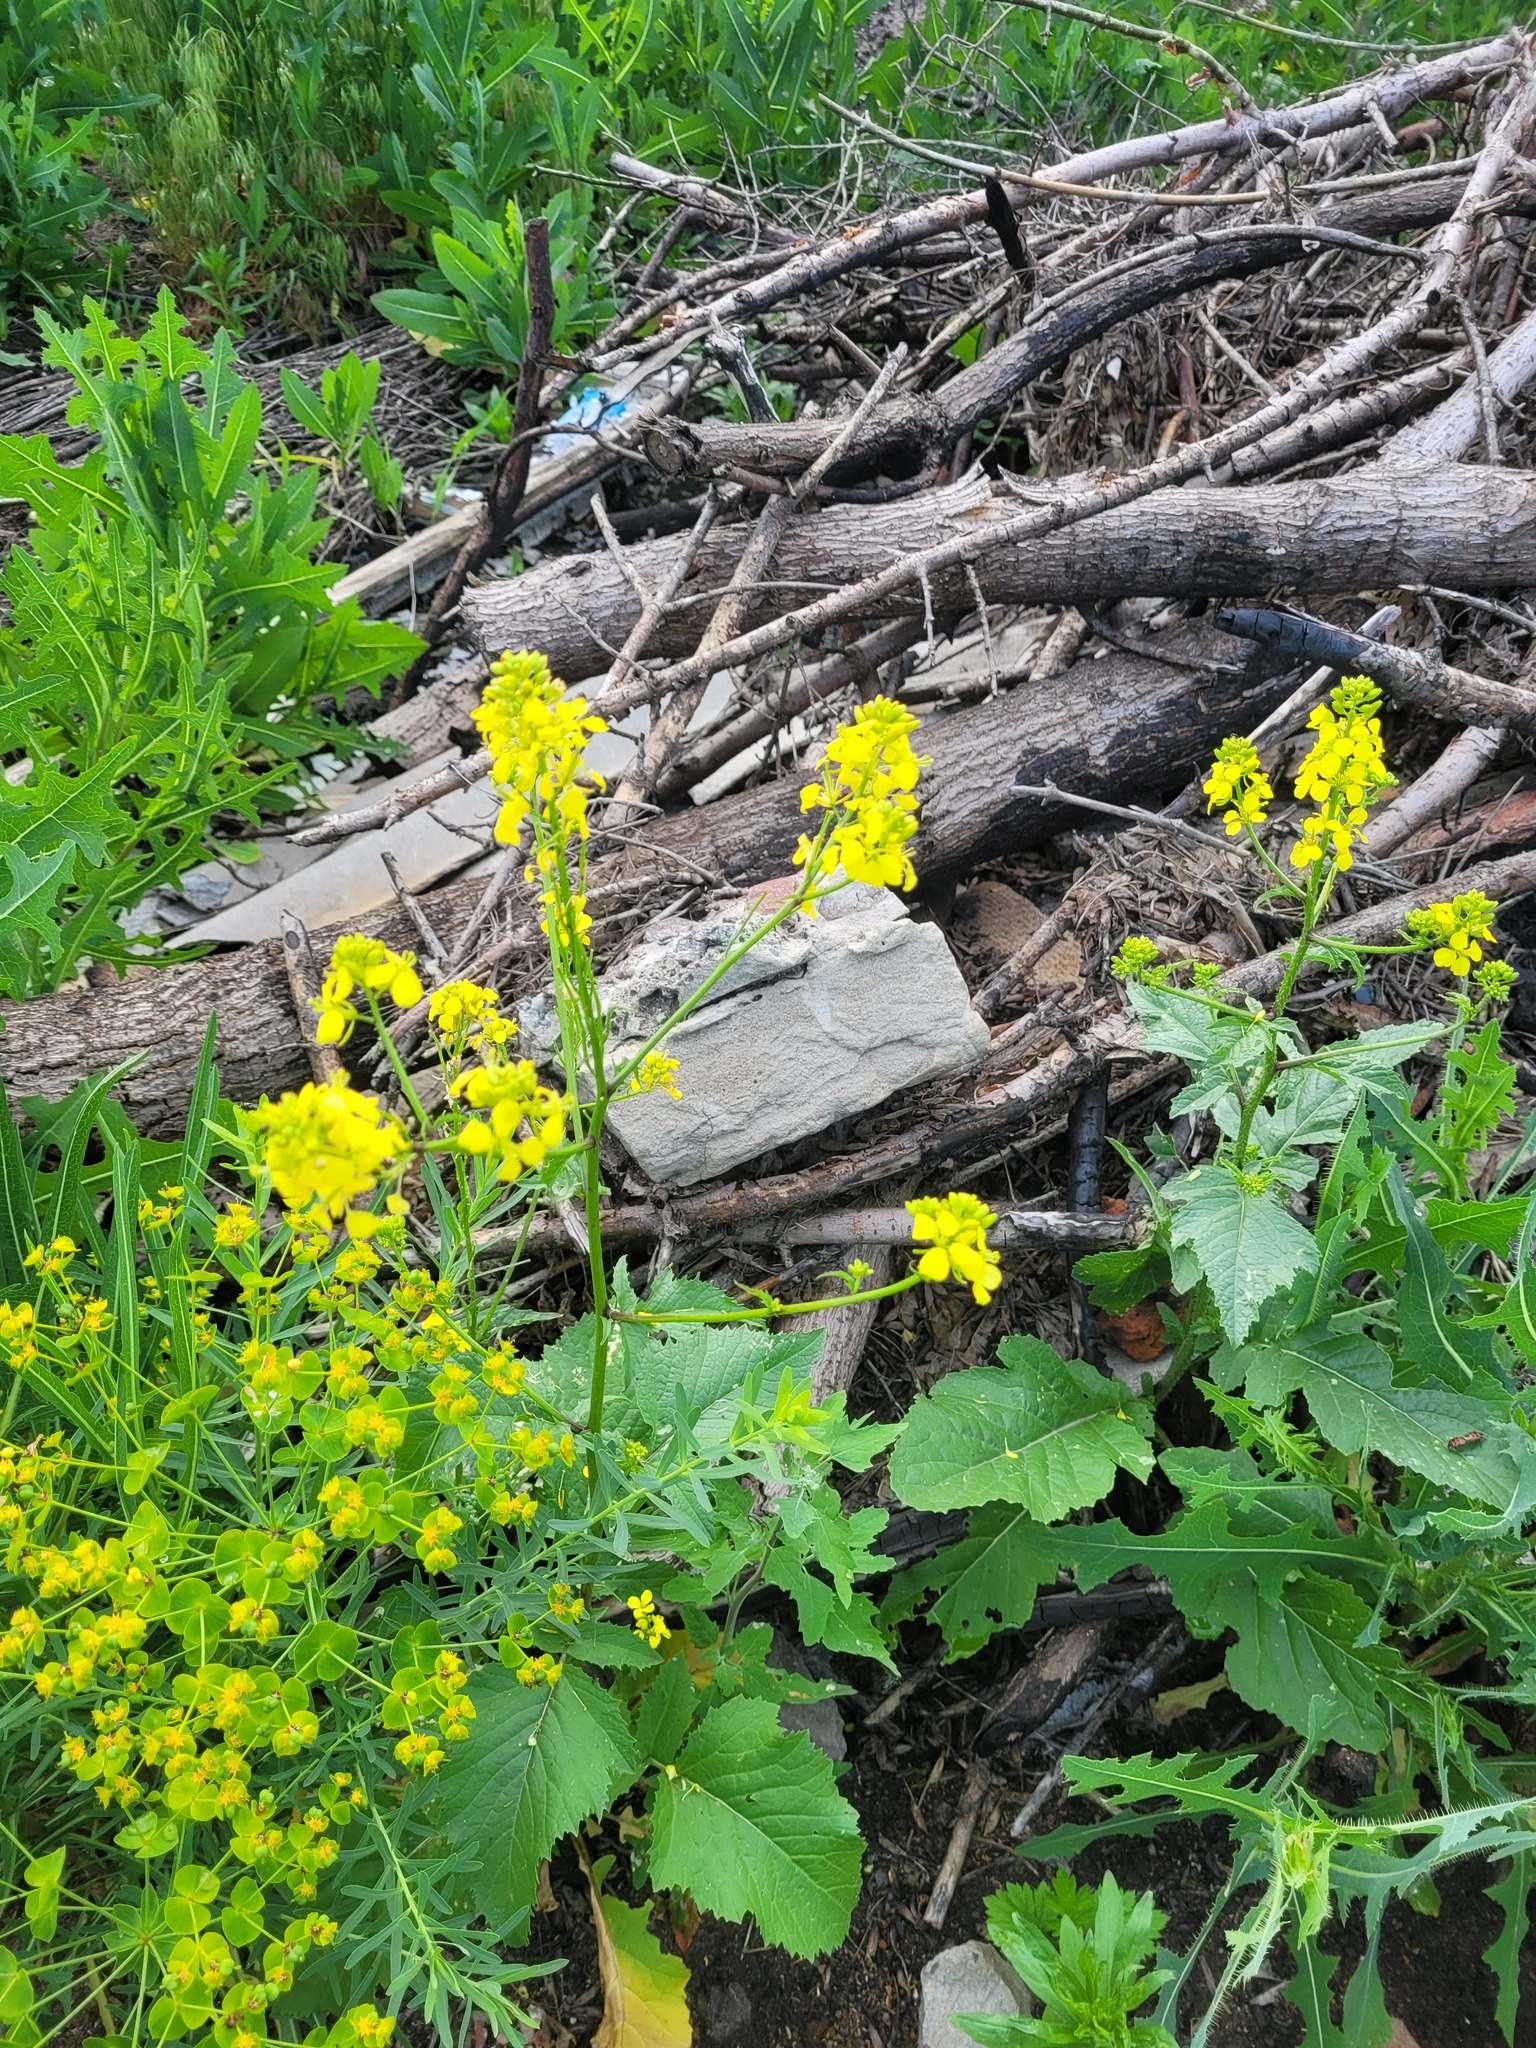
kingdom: Plantae
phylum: Tracheophyta
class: Magnoliopsida
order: Brassicales
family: Brassicaceae
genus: Sinapis
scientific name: Sinapis arvensis
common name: Charlock
